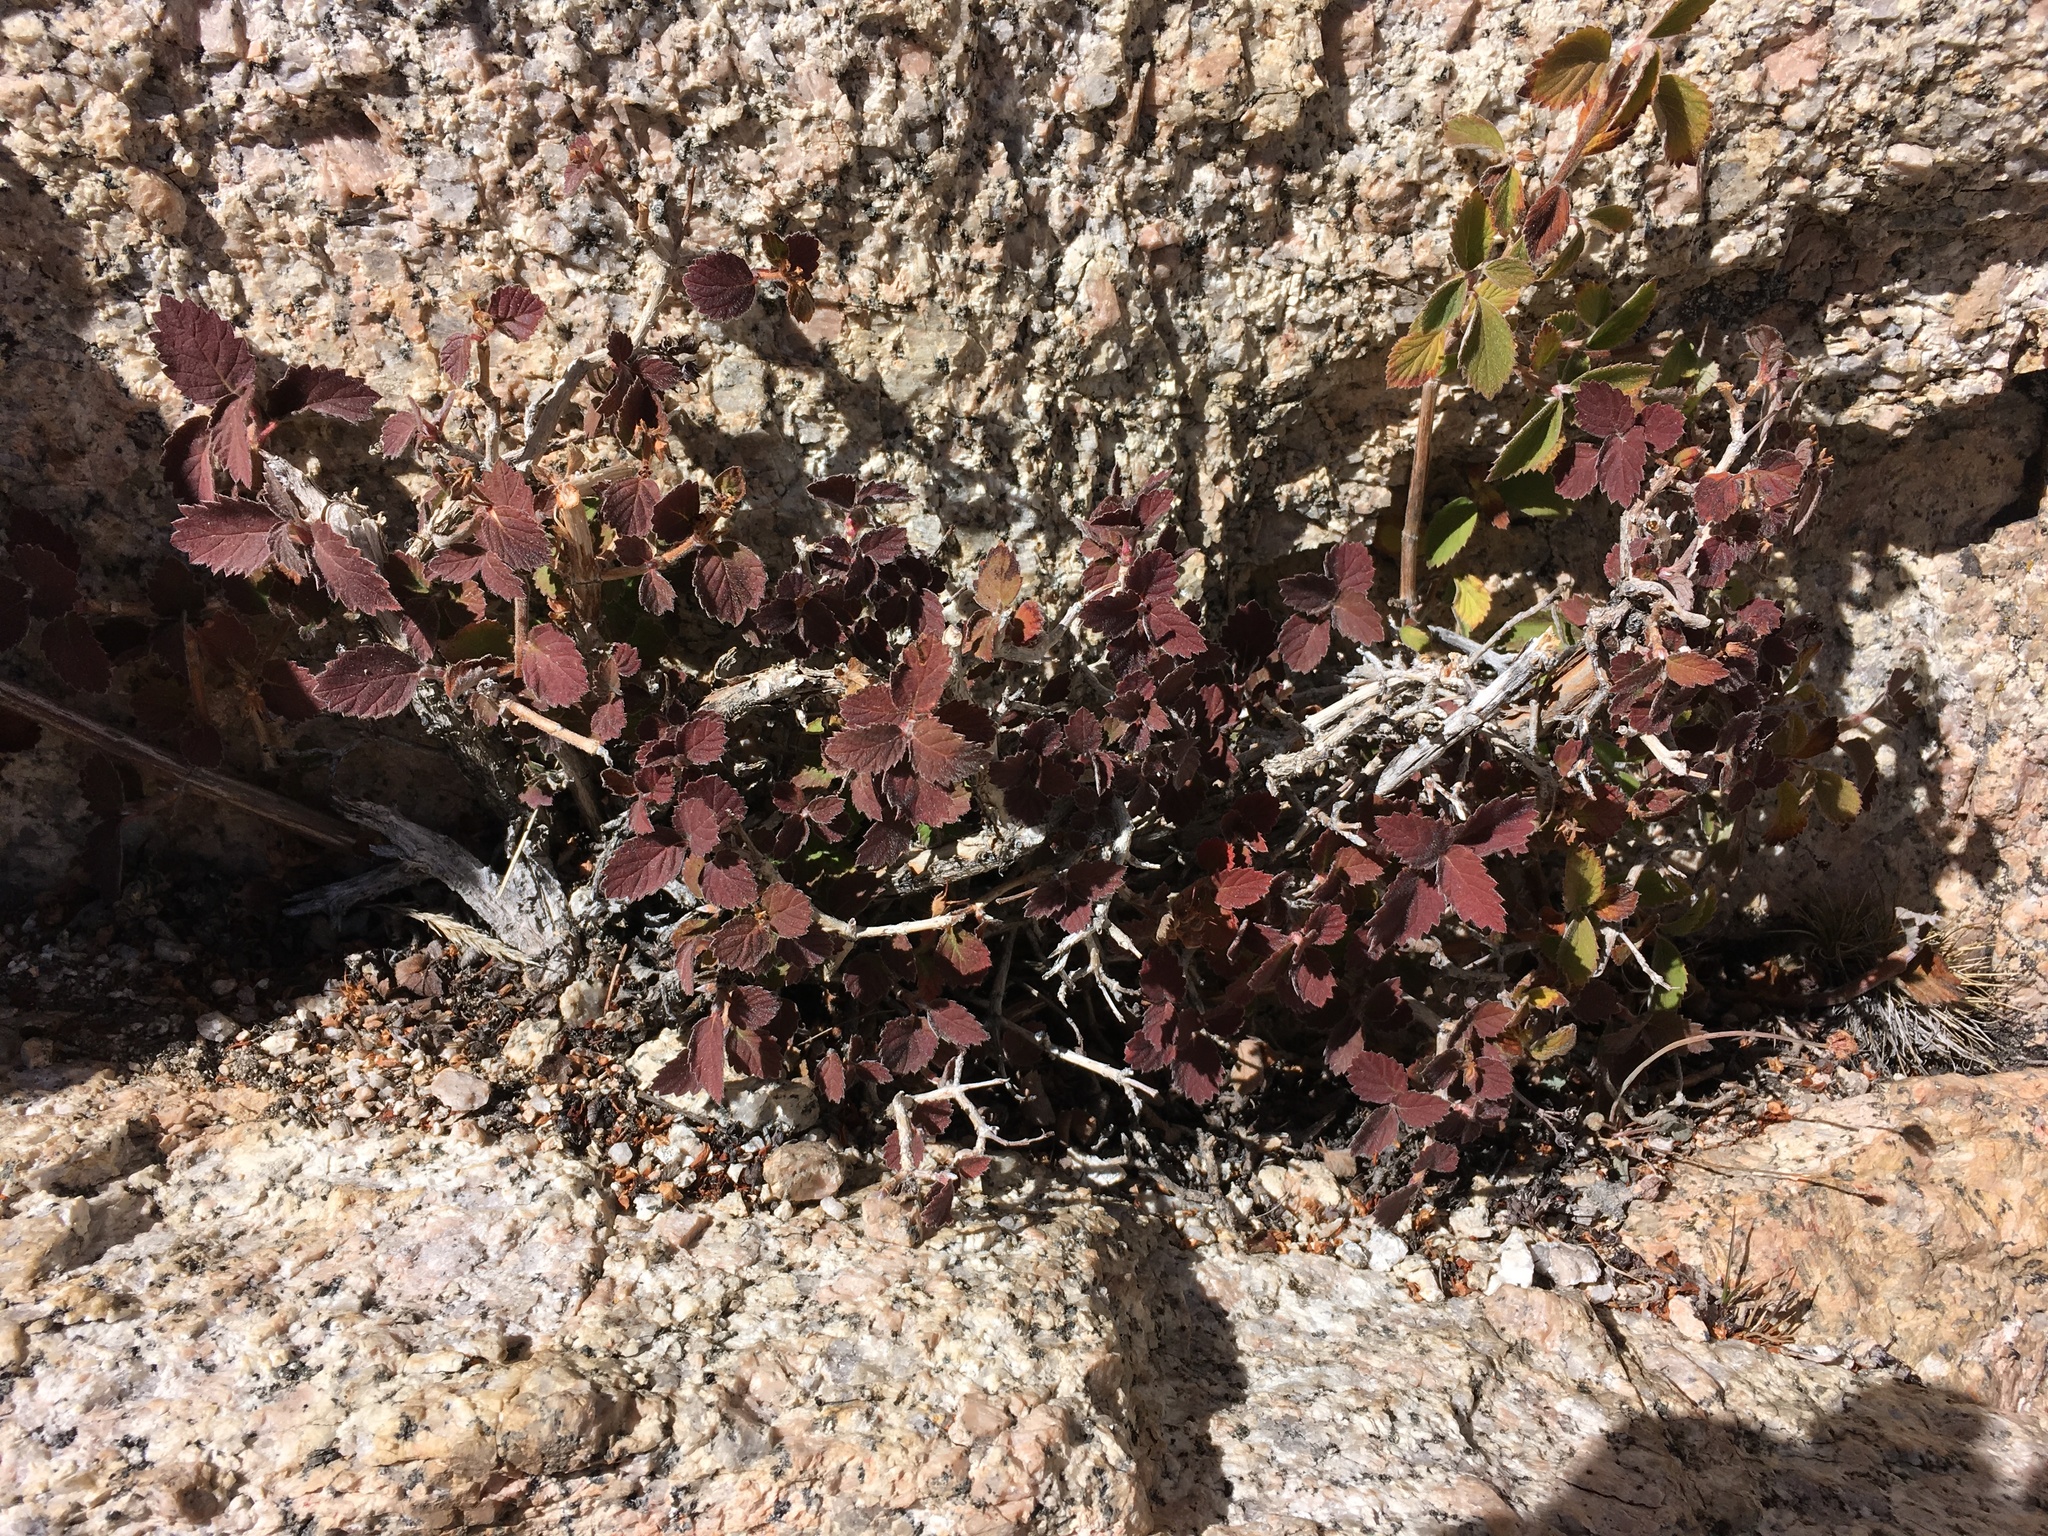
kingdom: Plantae
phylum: Tracheophyta
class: Magnoliopsida
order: Cornales
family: Hydrangeaceae
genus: Jamesia
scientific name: Jamesia americana
